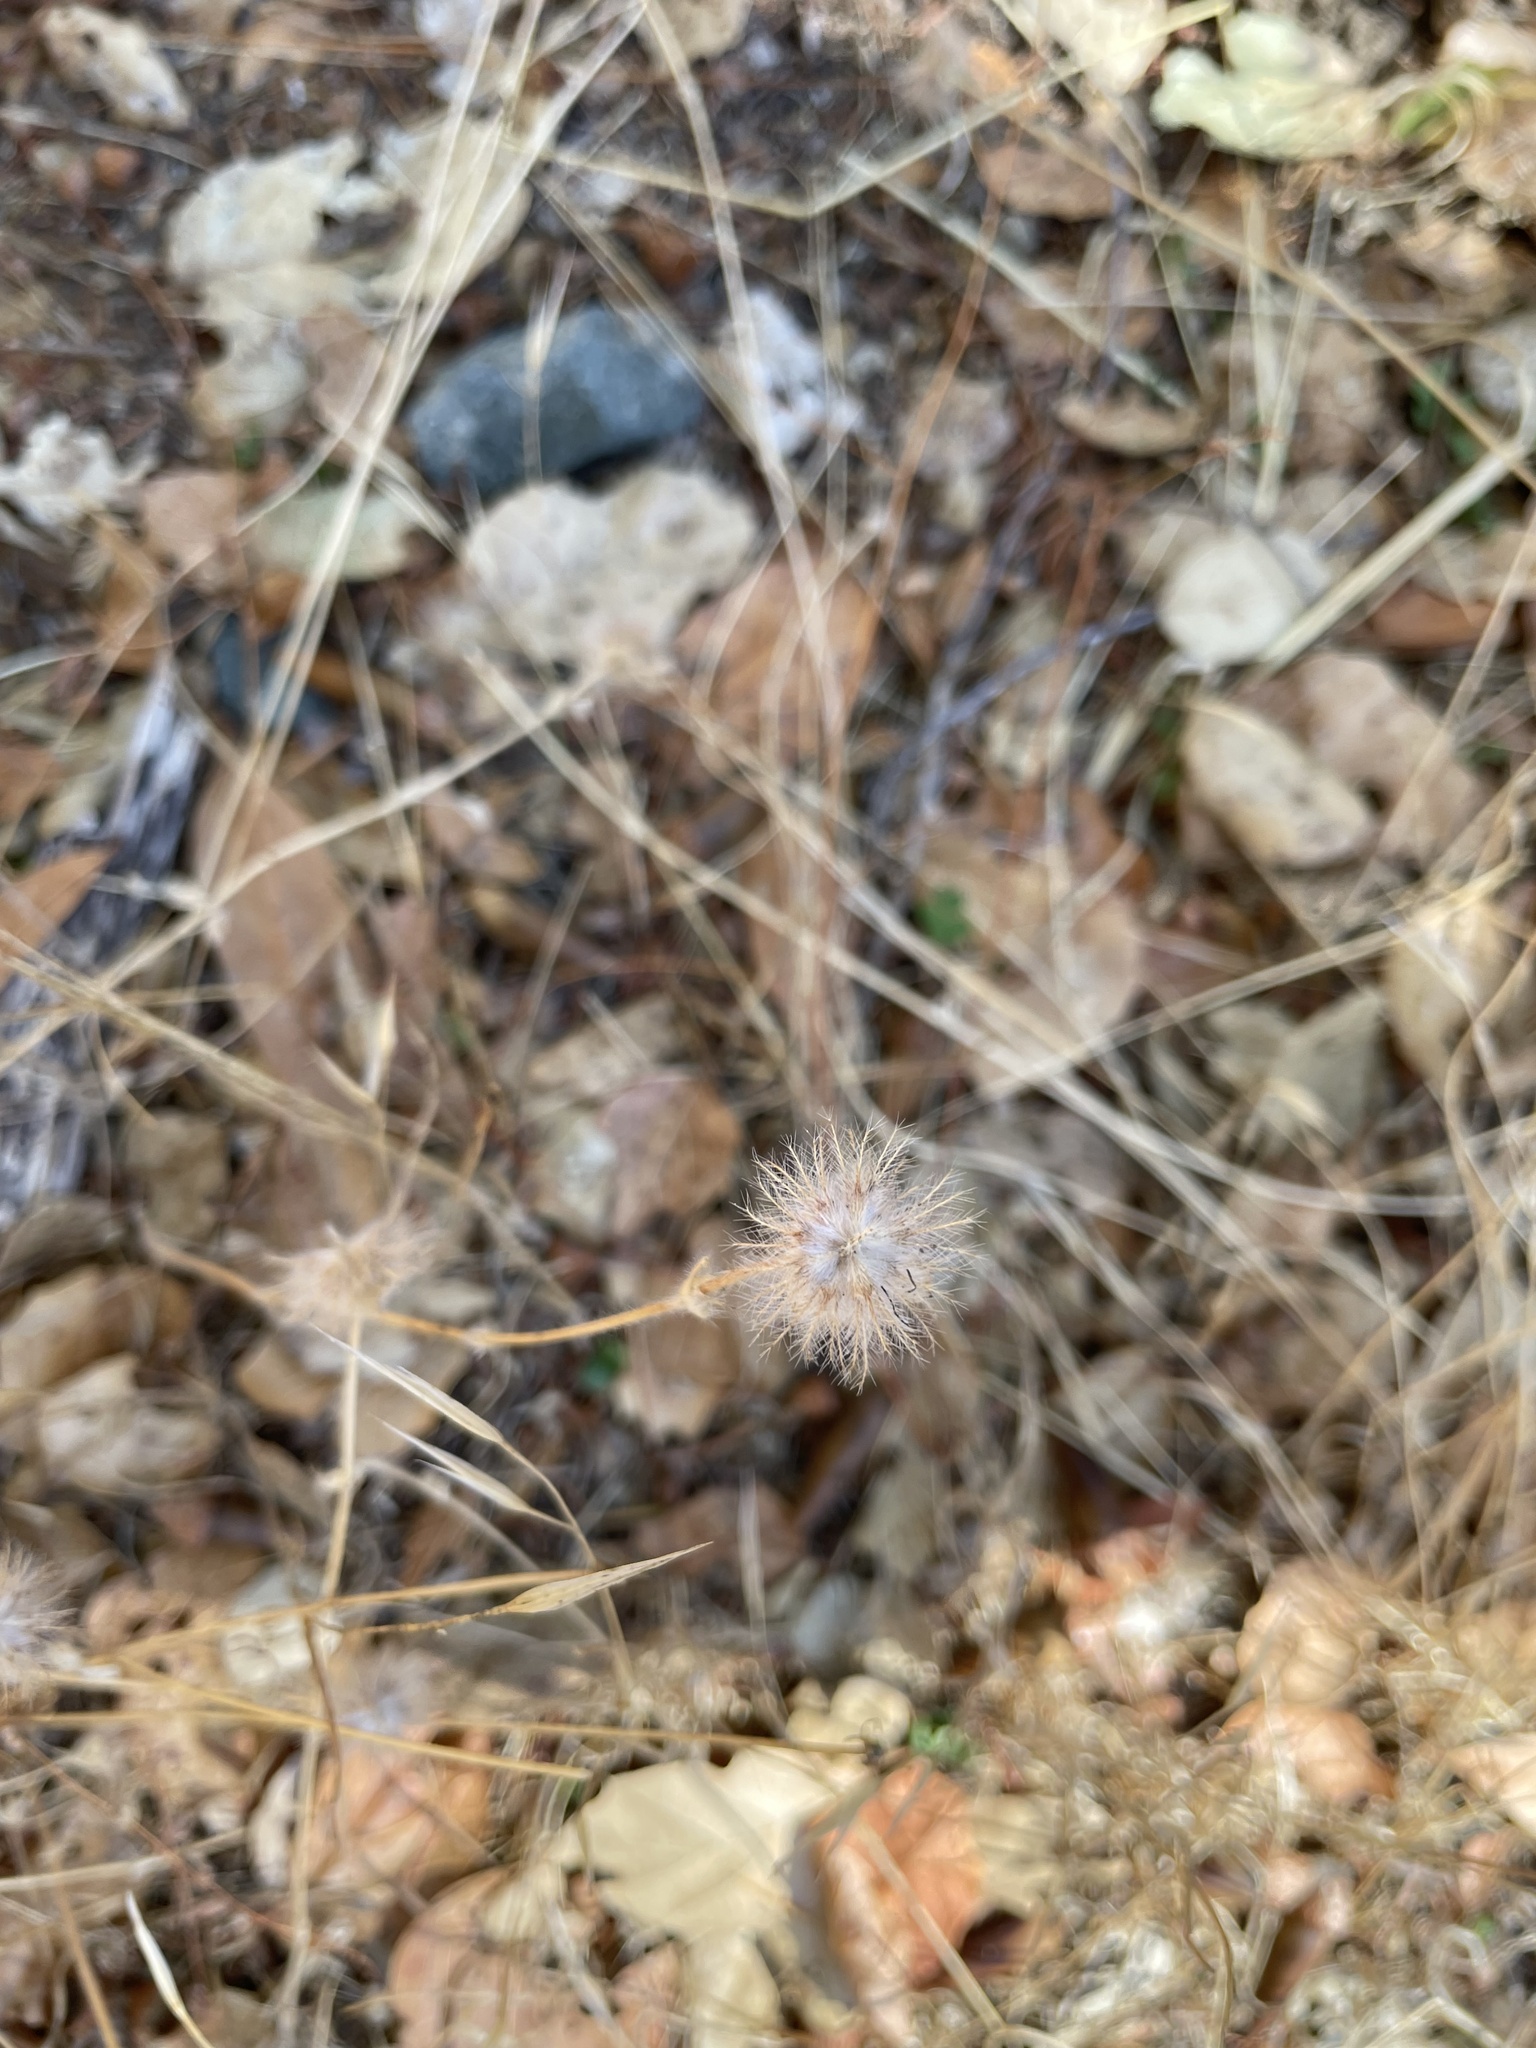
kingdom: Plantae
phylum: Tracheophyta
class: Magnoliopsida
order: Fabales
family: Fabaceae
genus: Trifolium
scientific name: Trifolium hirtum
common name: Rose clover
